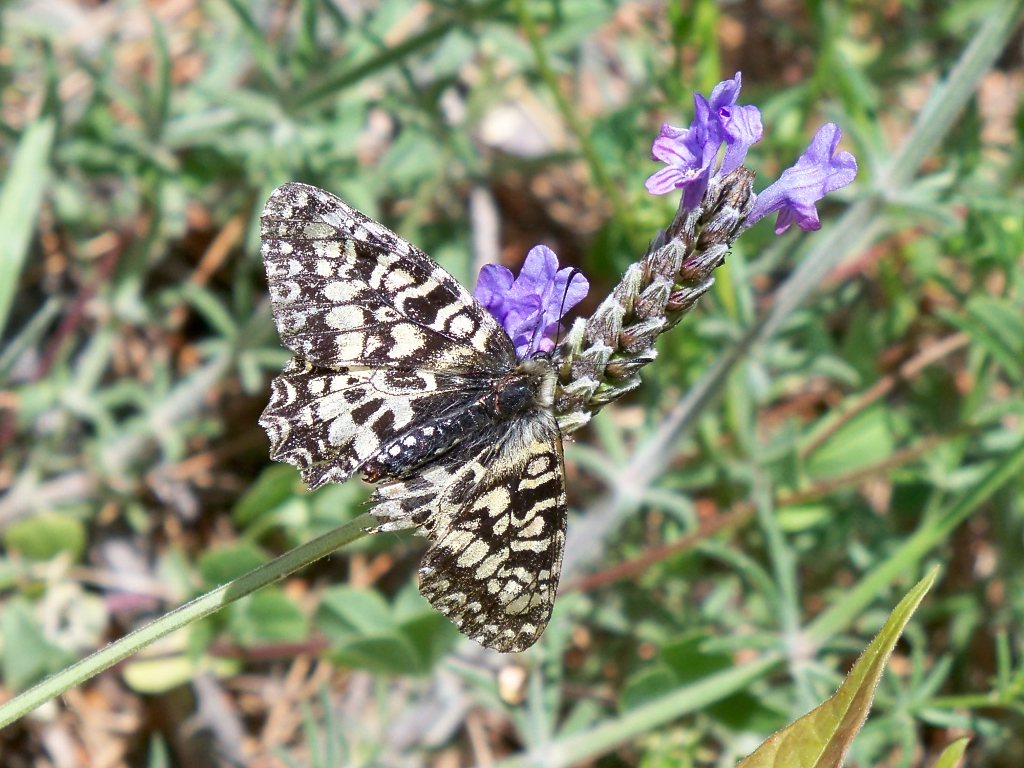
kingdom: Animalia
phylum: Arthropoda
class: Insecta
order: Lepidoptera
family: Papilionidae
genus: Zerynthia
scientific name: Zerynthia rumina
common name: Spanish festoon
